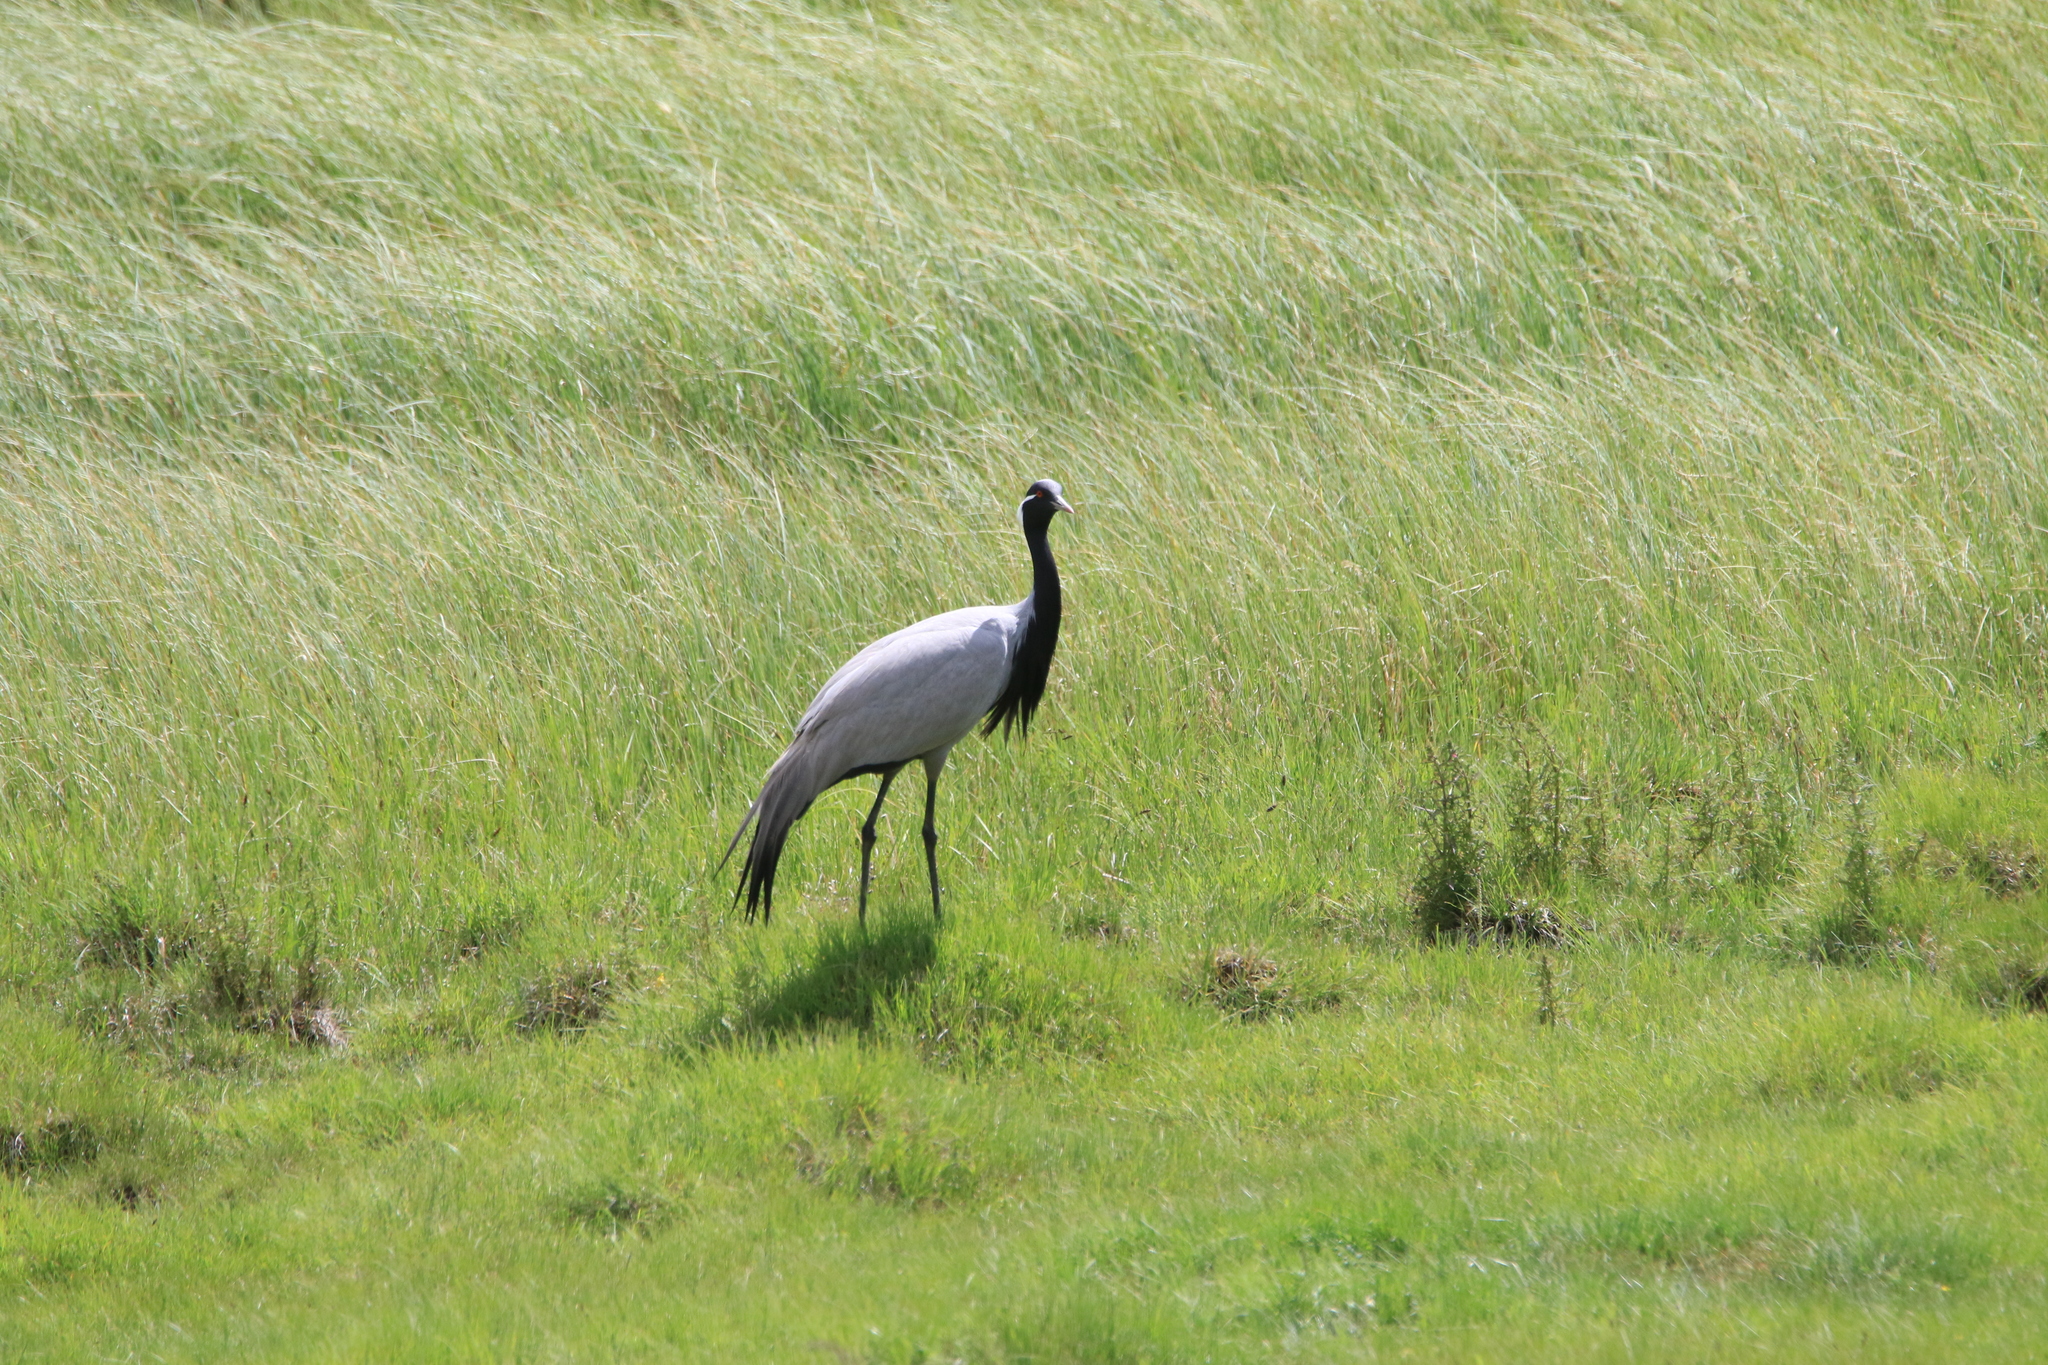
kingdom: Animalia
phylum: Chordata
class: Aves
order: Gruiformes
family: Gruidae
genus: Anthropoides
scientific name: Anthropoides virgo
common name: Demoiselle crane
